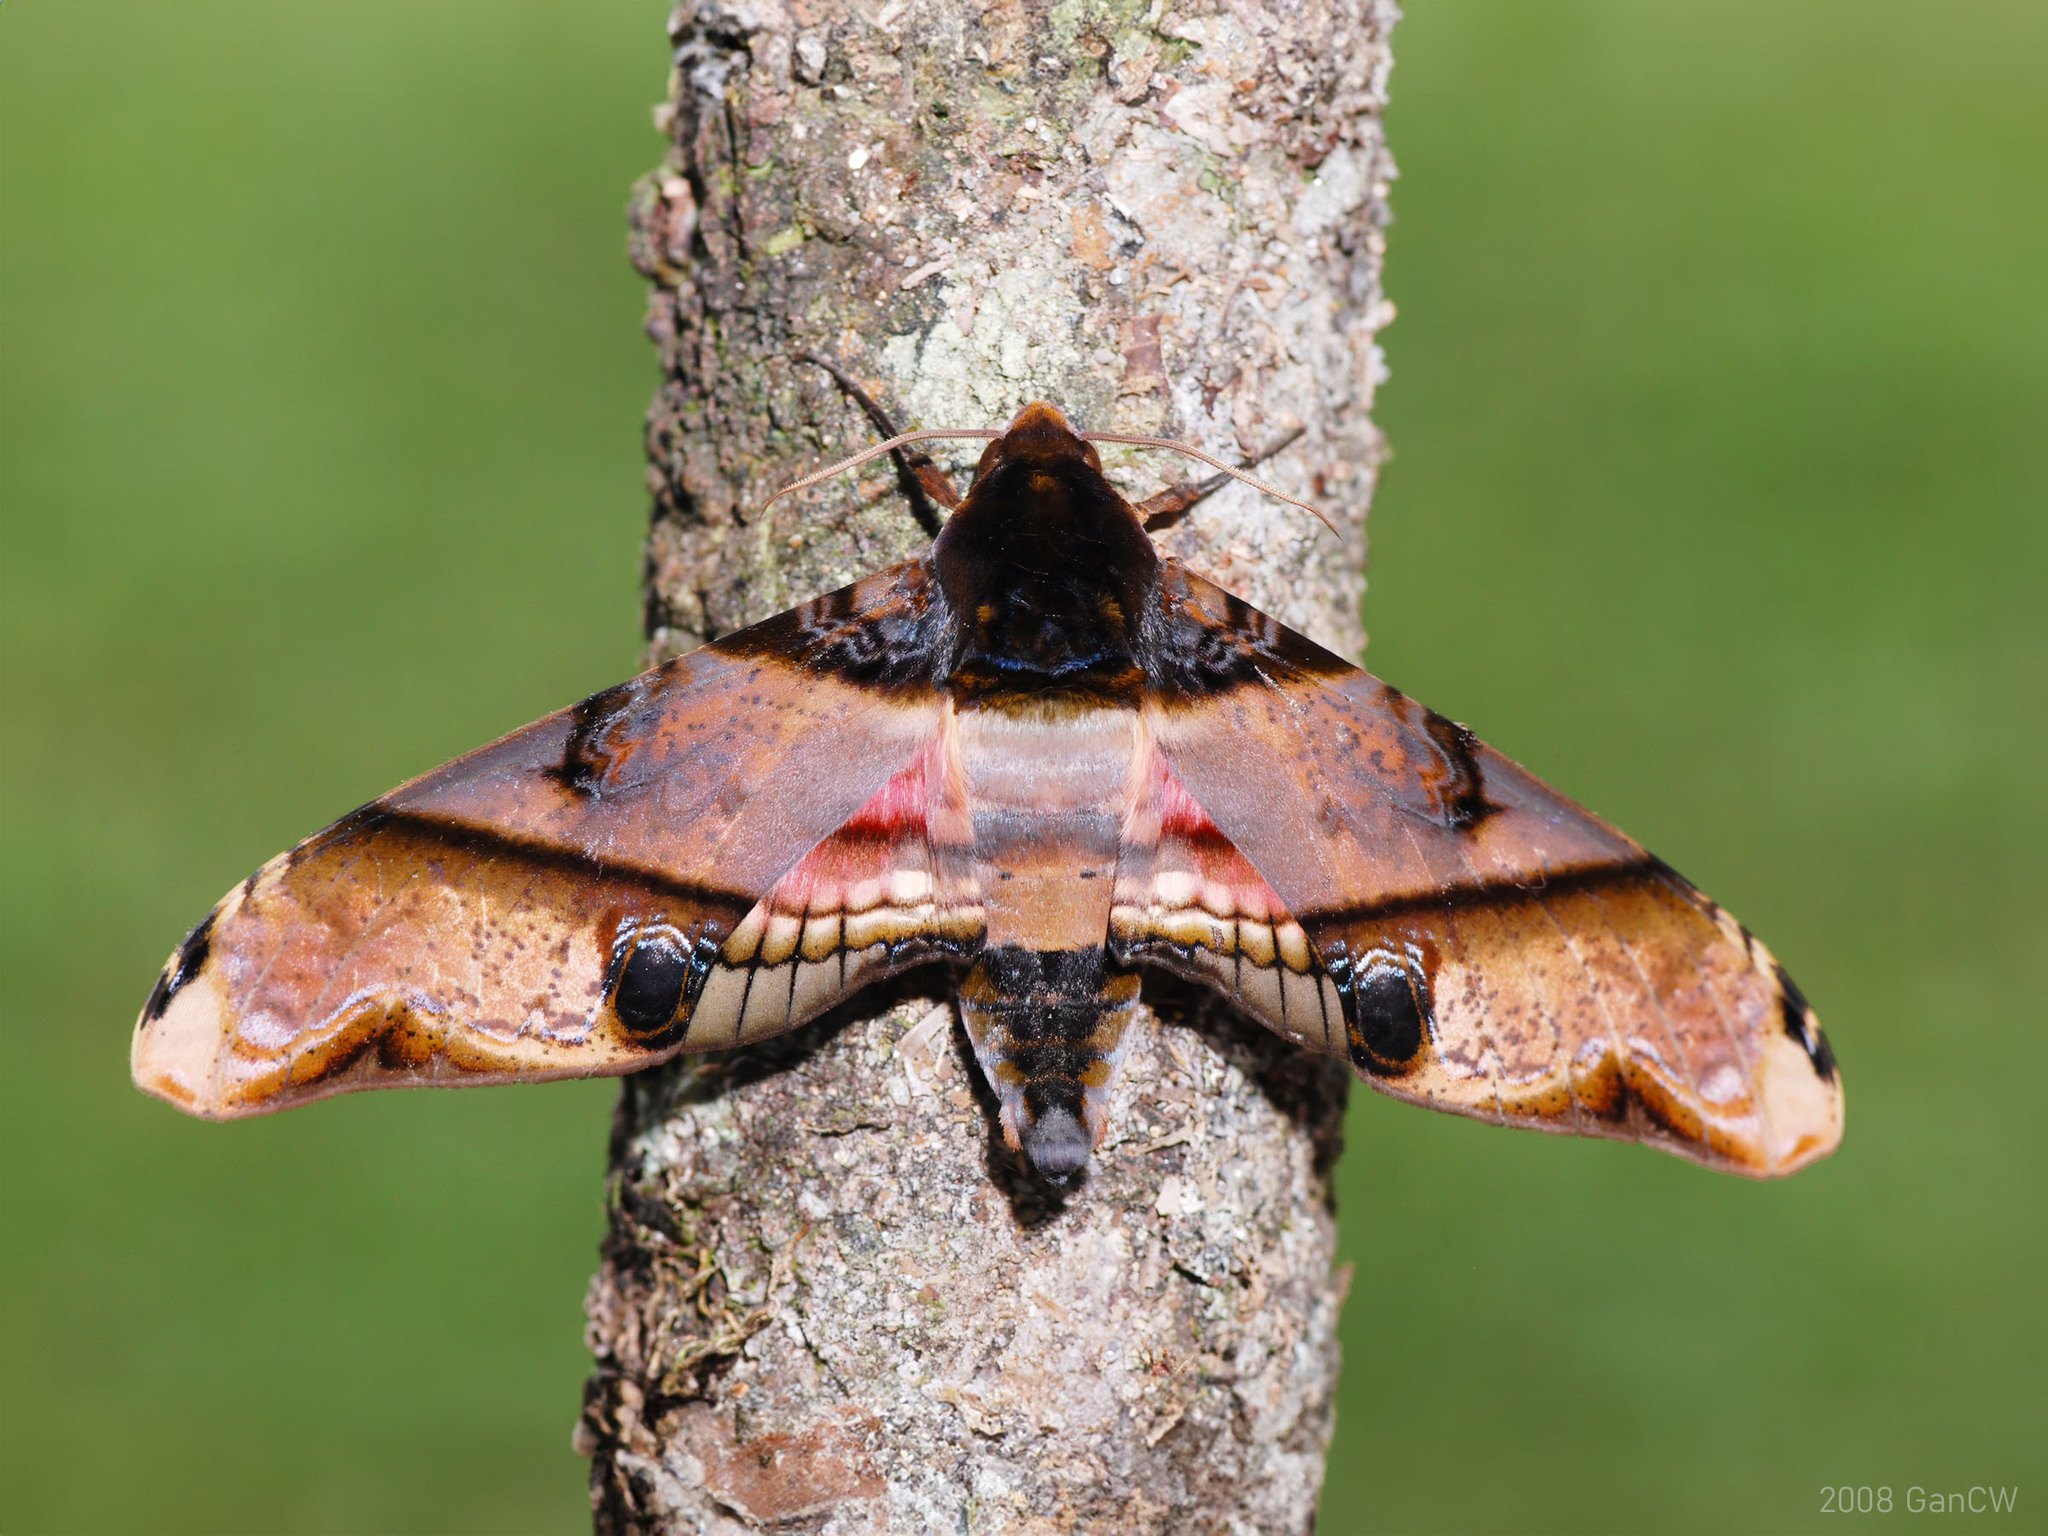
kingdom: Animalia
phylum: Arthropoda
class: Insecta
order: Lepidoptera
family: Sphingidae
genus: Amplypterus
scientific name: Amplypterus panopus
